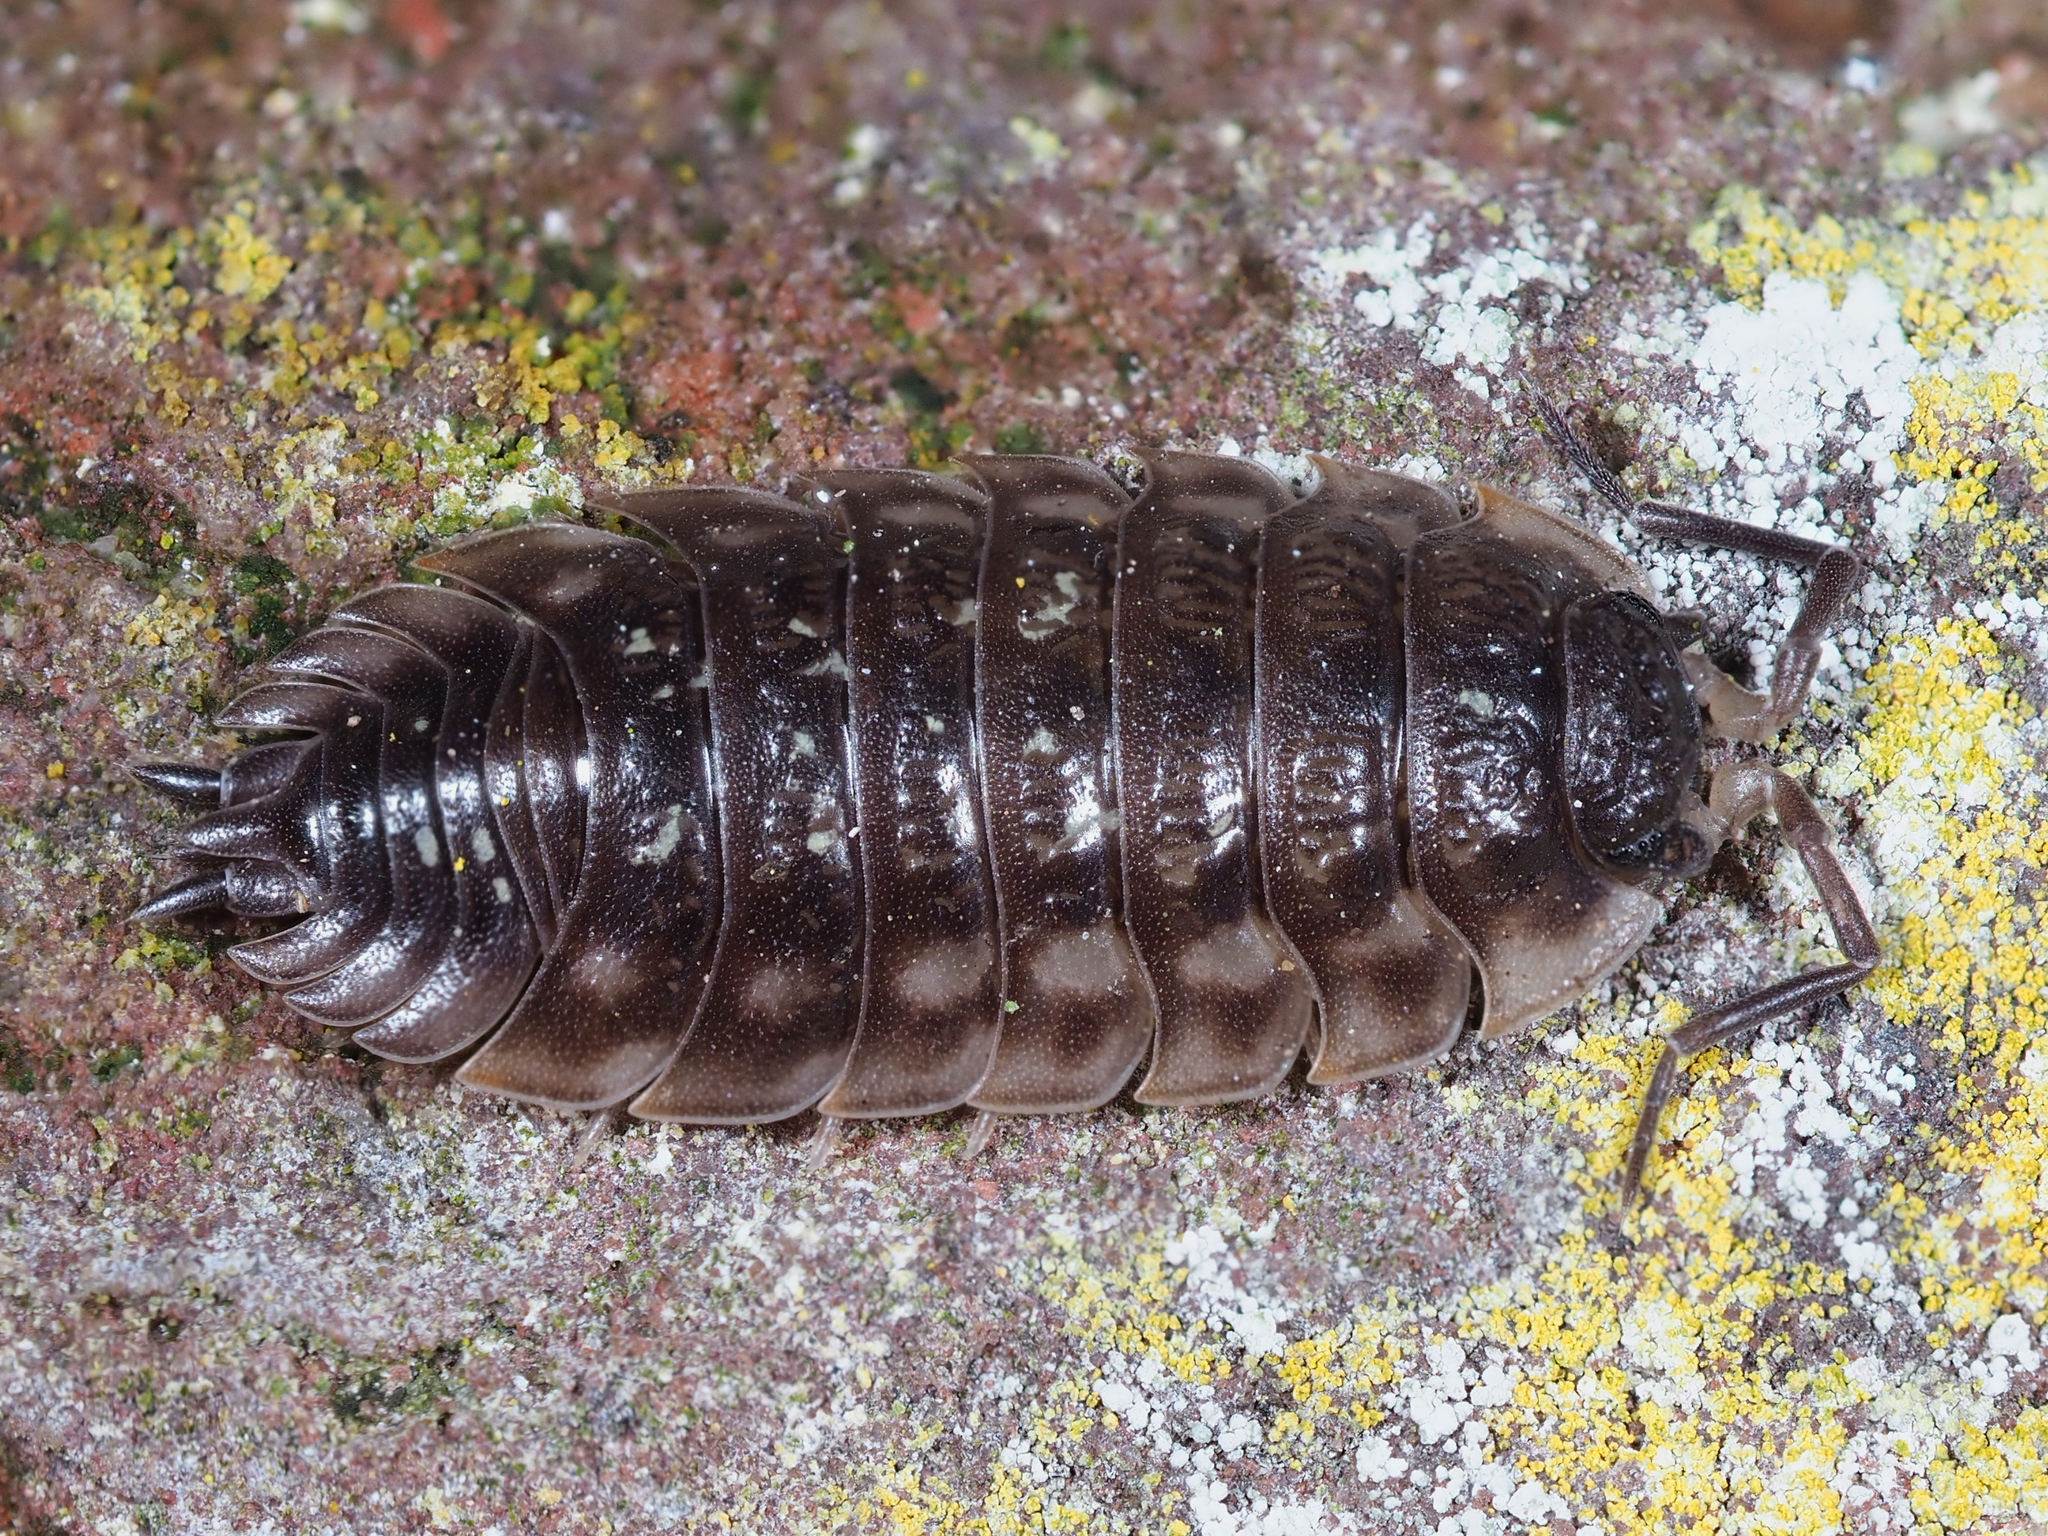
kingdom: Animalia
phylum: Arthropoda
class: Malacostraca
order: Isopoda
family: Oniscidae
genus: Oniscus
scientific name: Oniscus asellus
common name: Common shiny woodlouse
